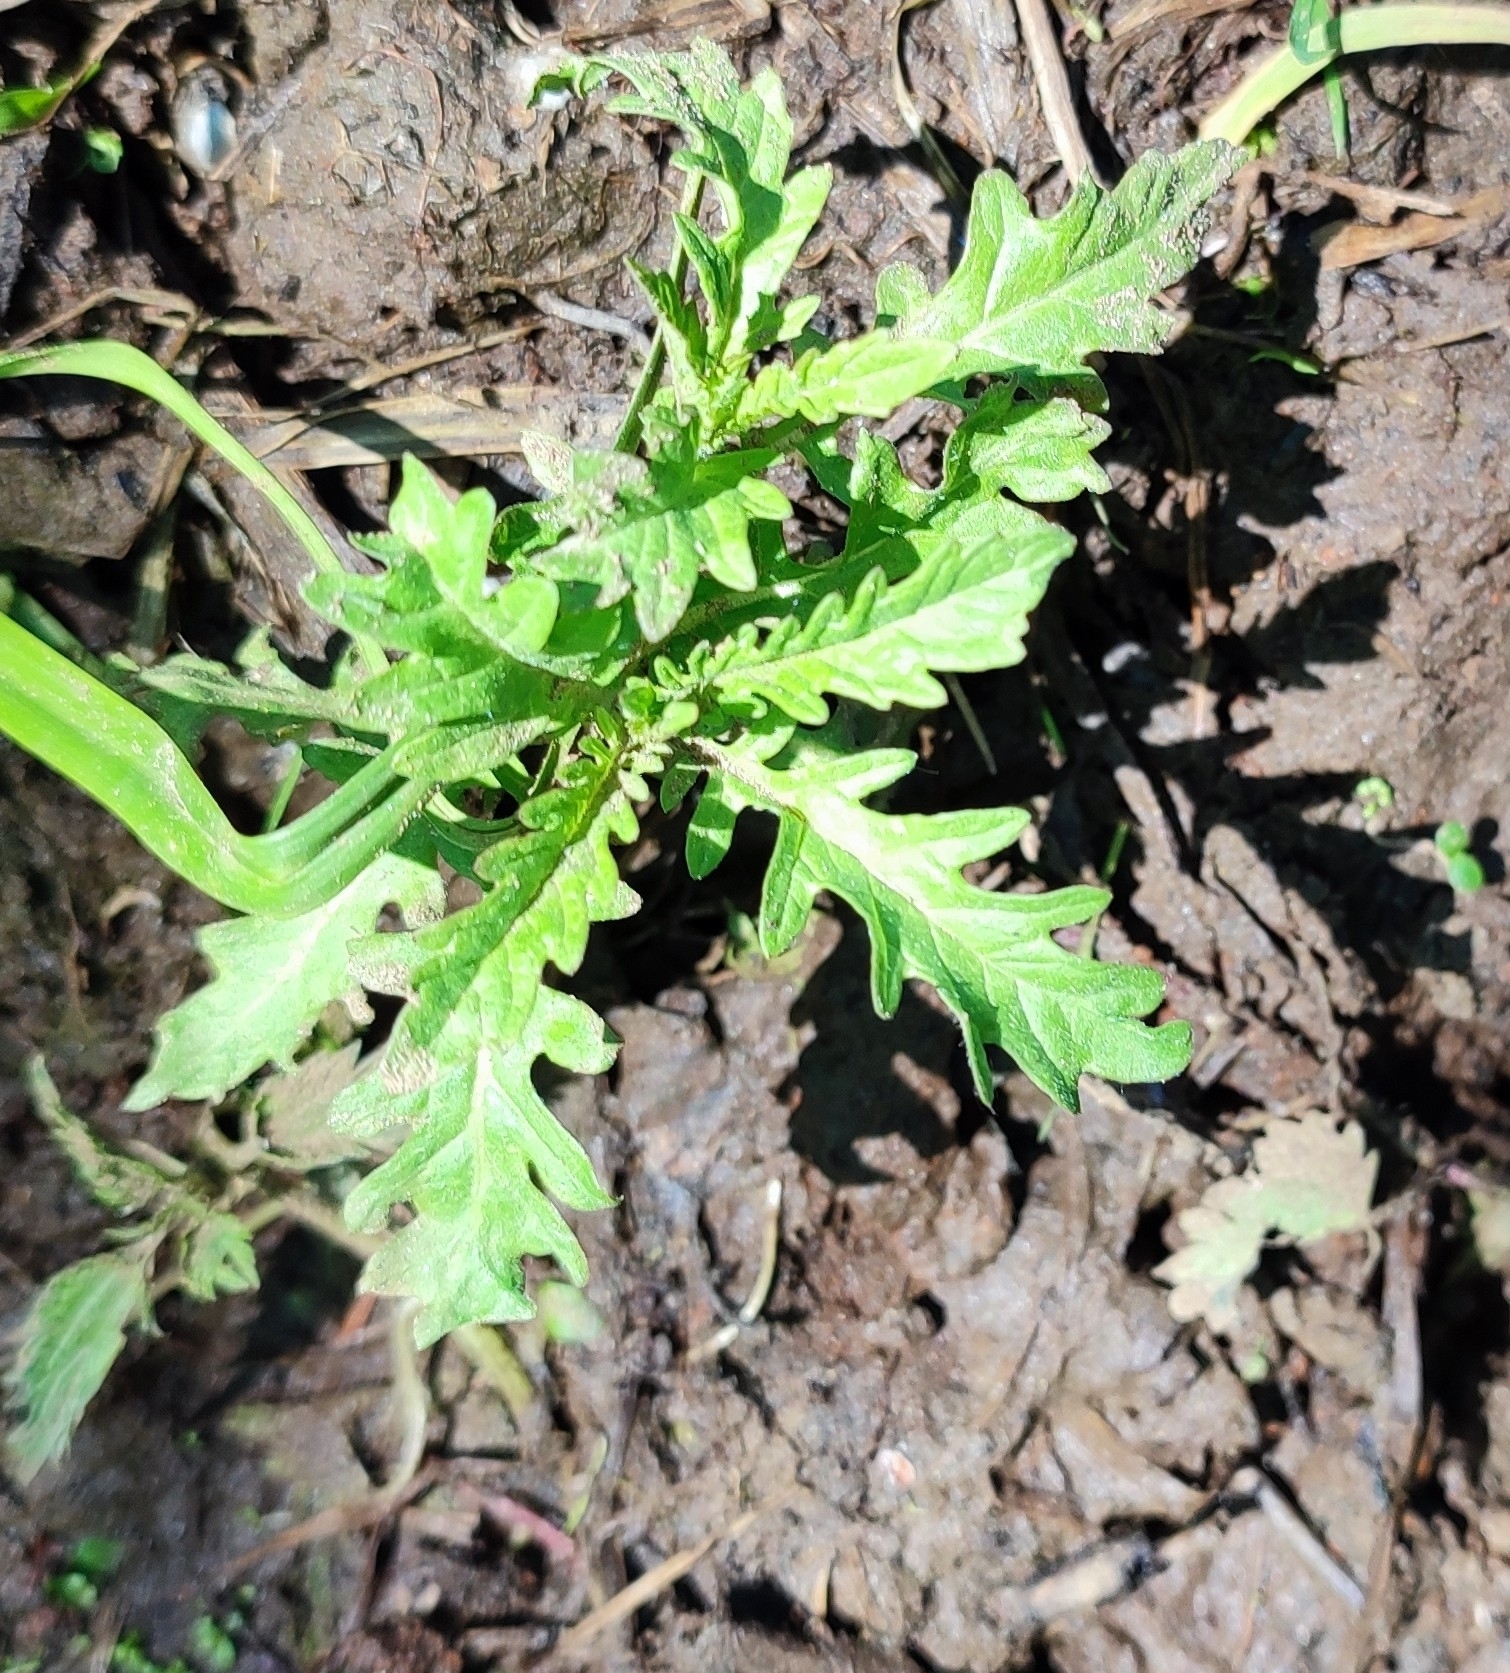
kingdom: Plantae
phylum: Tracheophyta
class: Magnoliopsida
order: Lamiales
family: Lamiaceae
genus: Lycopus
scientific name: Lycopus europaeus
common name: European bugleweed
